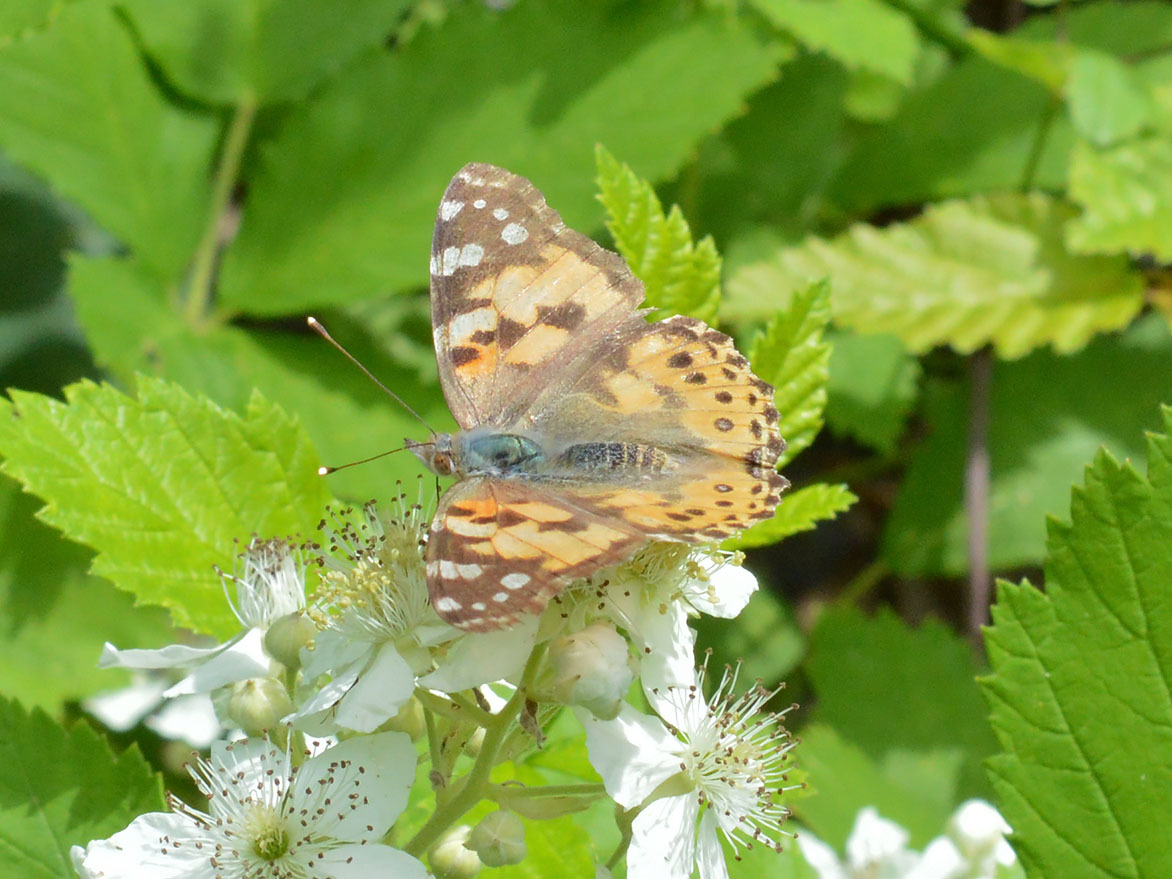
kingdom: Animalia
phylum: Arthropoda
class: Insecta
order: Lepidoptera
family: Nymphalidae
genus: Vanessa
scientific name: Vanessa cardui
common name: Painted lady
